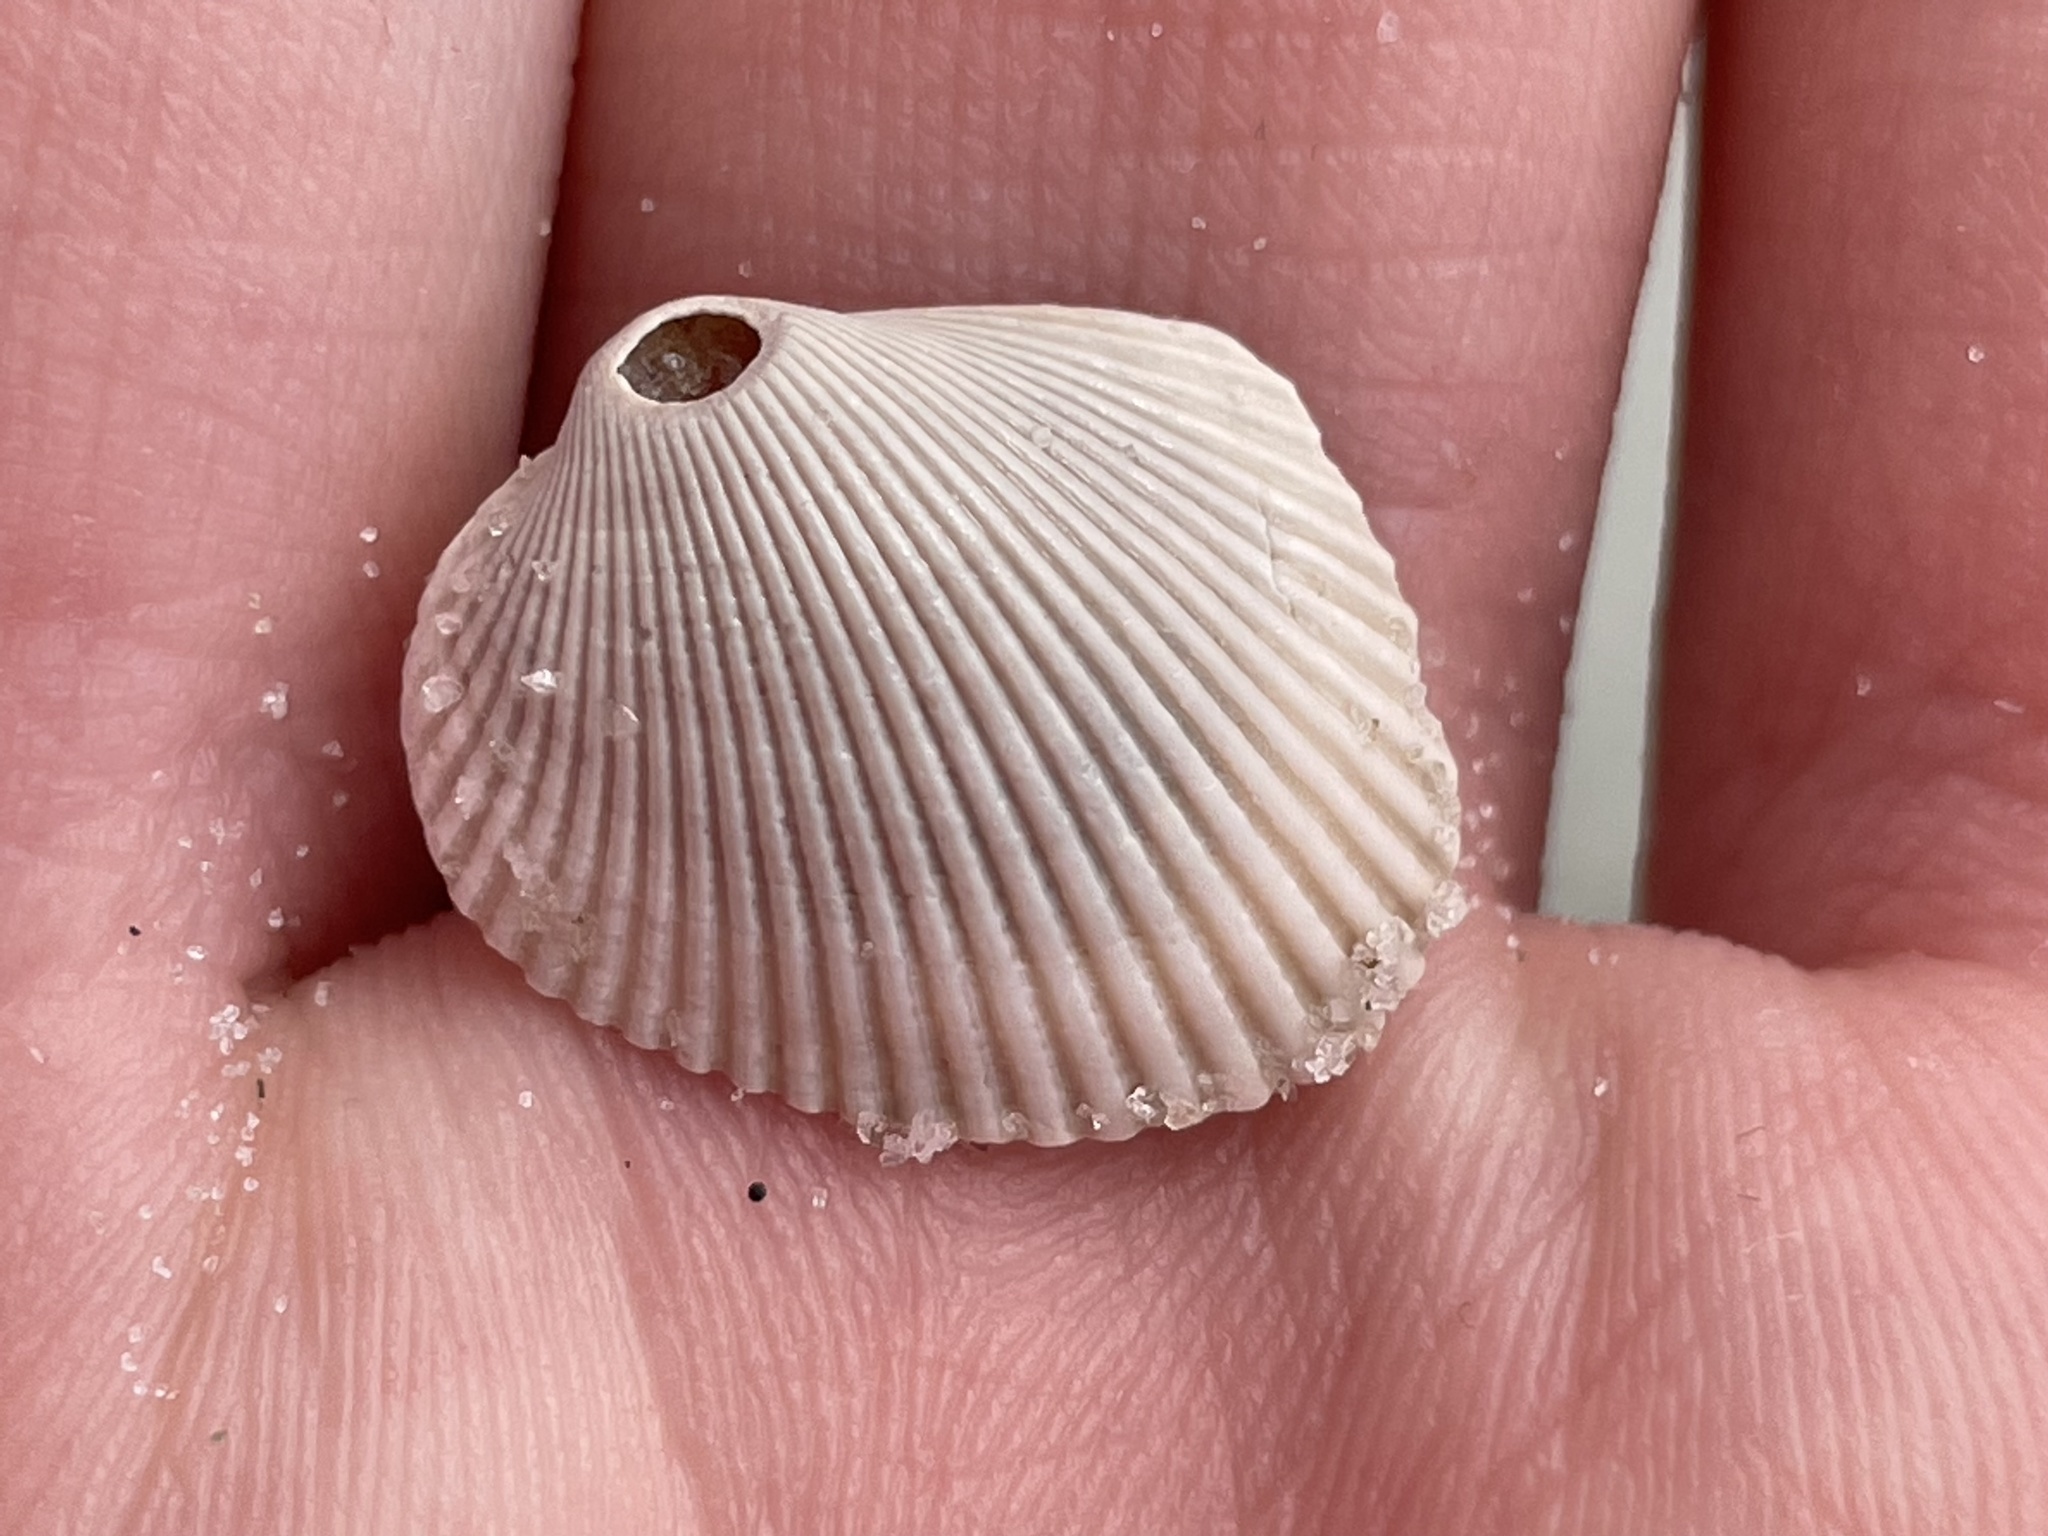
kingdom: Animalia
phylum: Mollusca
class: Bivalvia
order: Arcida
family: Arcidae
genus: Lunarca
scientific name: Lunarca ovalis
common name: Blood ark
